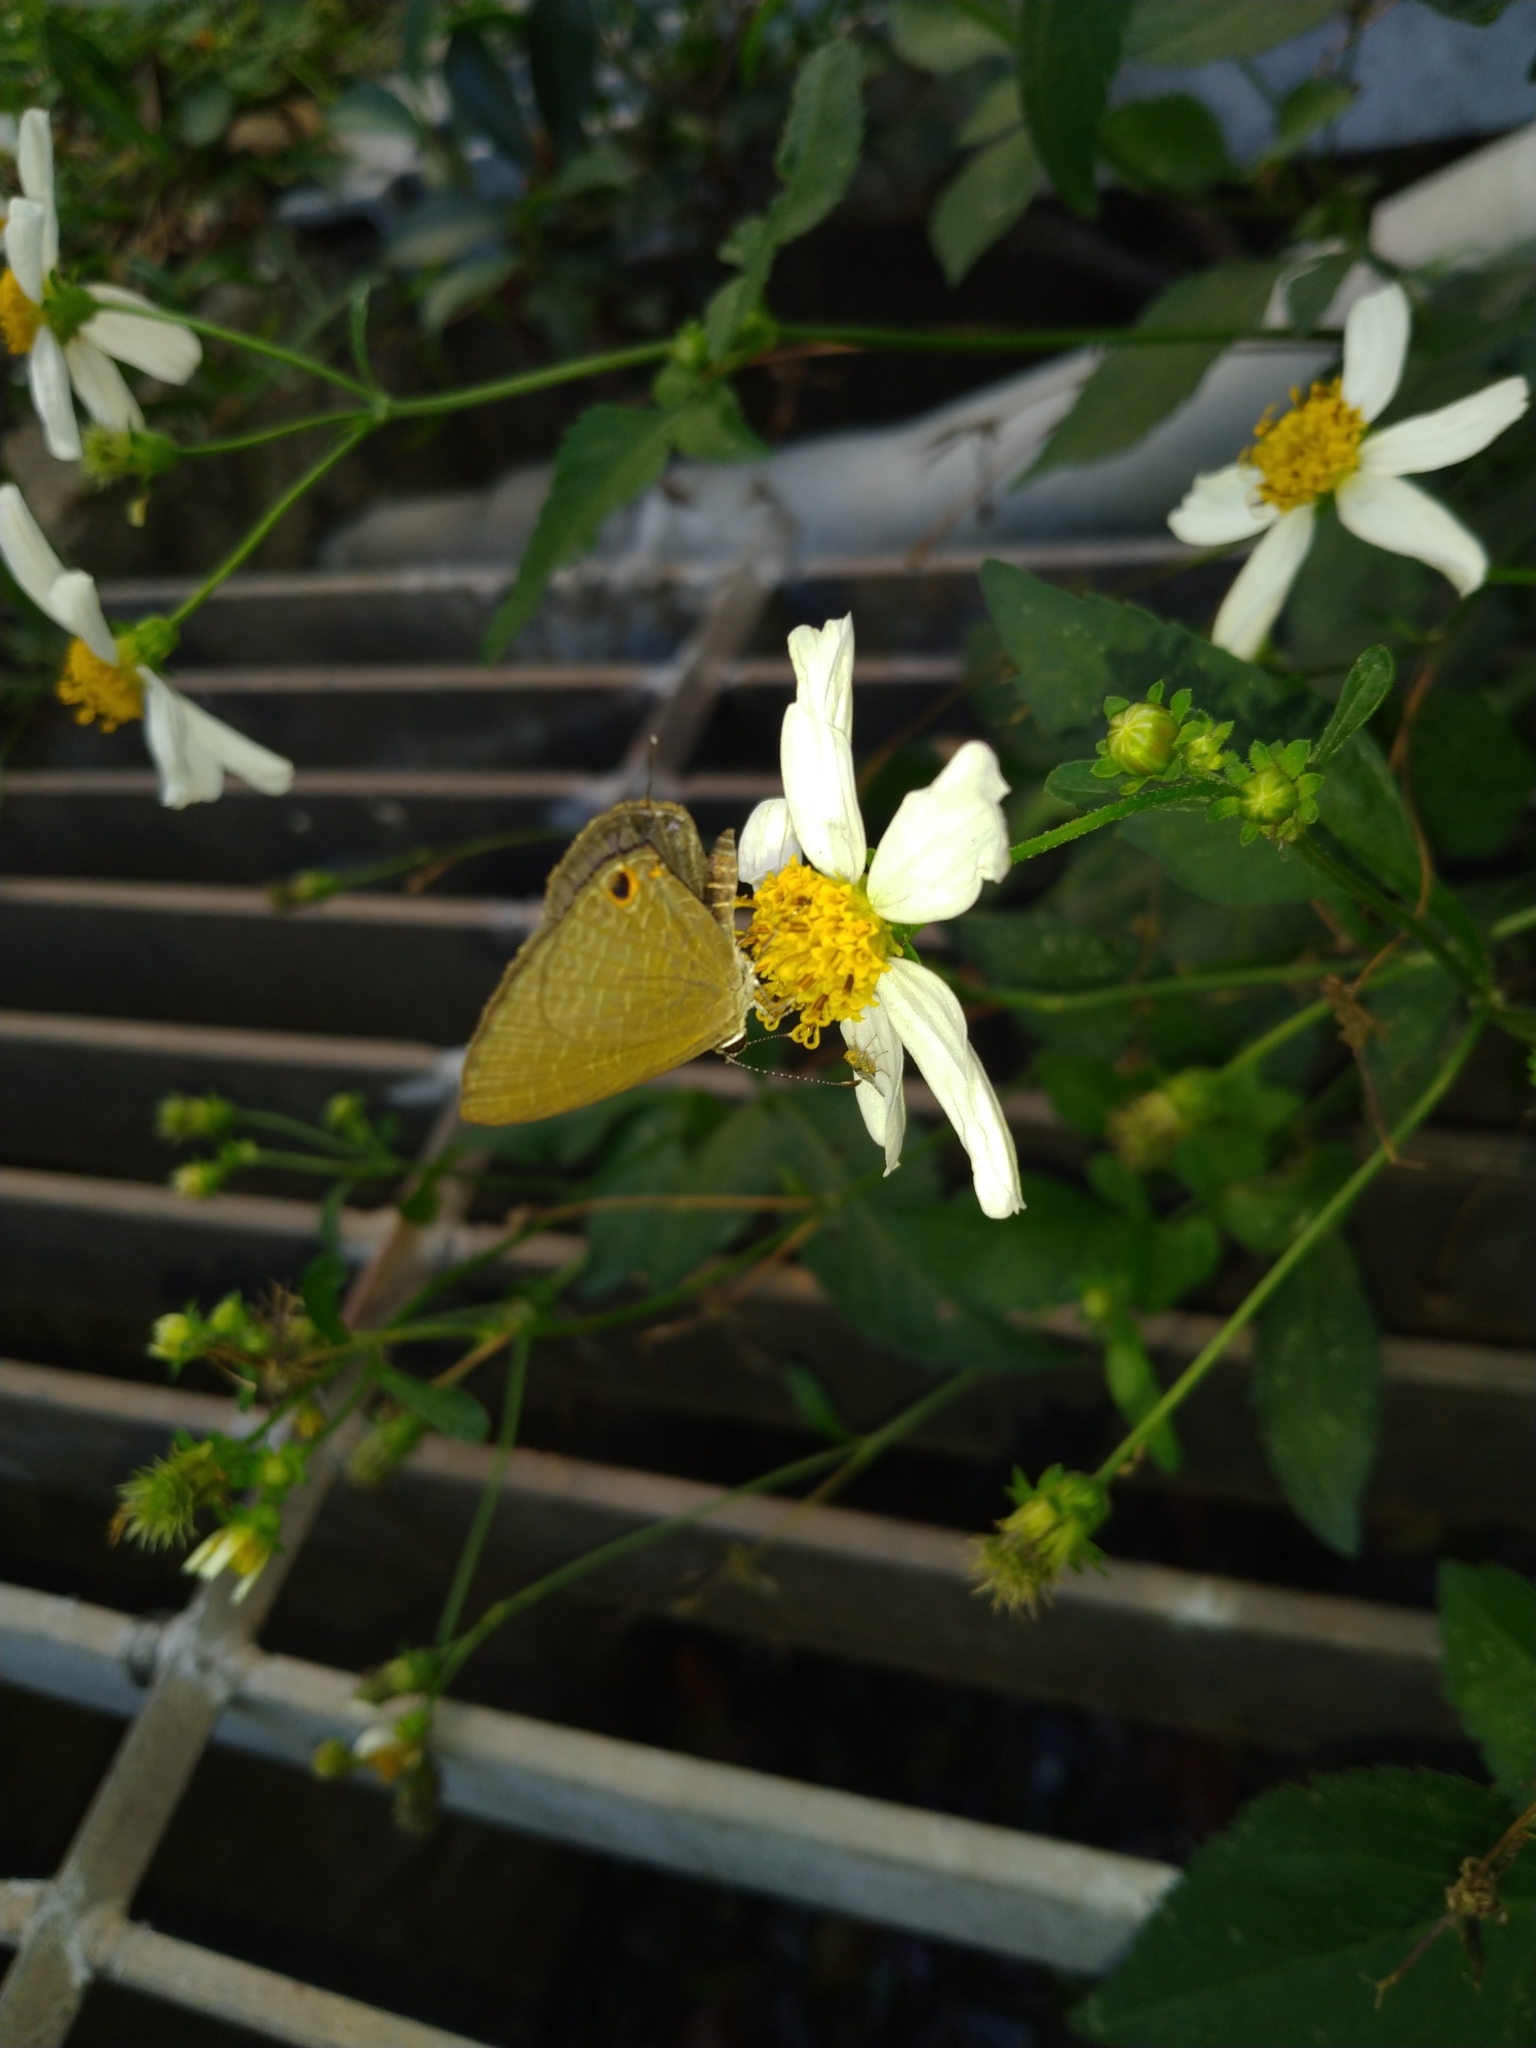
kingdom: Animalia
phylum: Arthropoda
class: Insecta
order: Lepidoptera
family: Lycaenidae
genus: Jamides
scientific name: Jamides bochus
